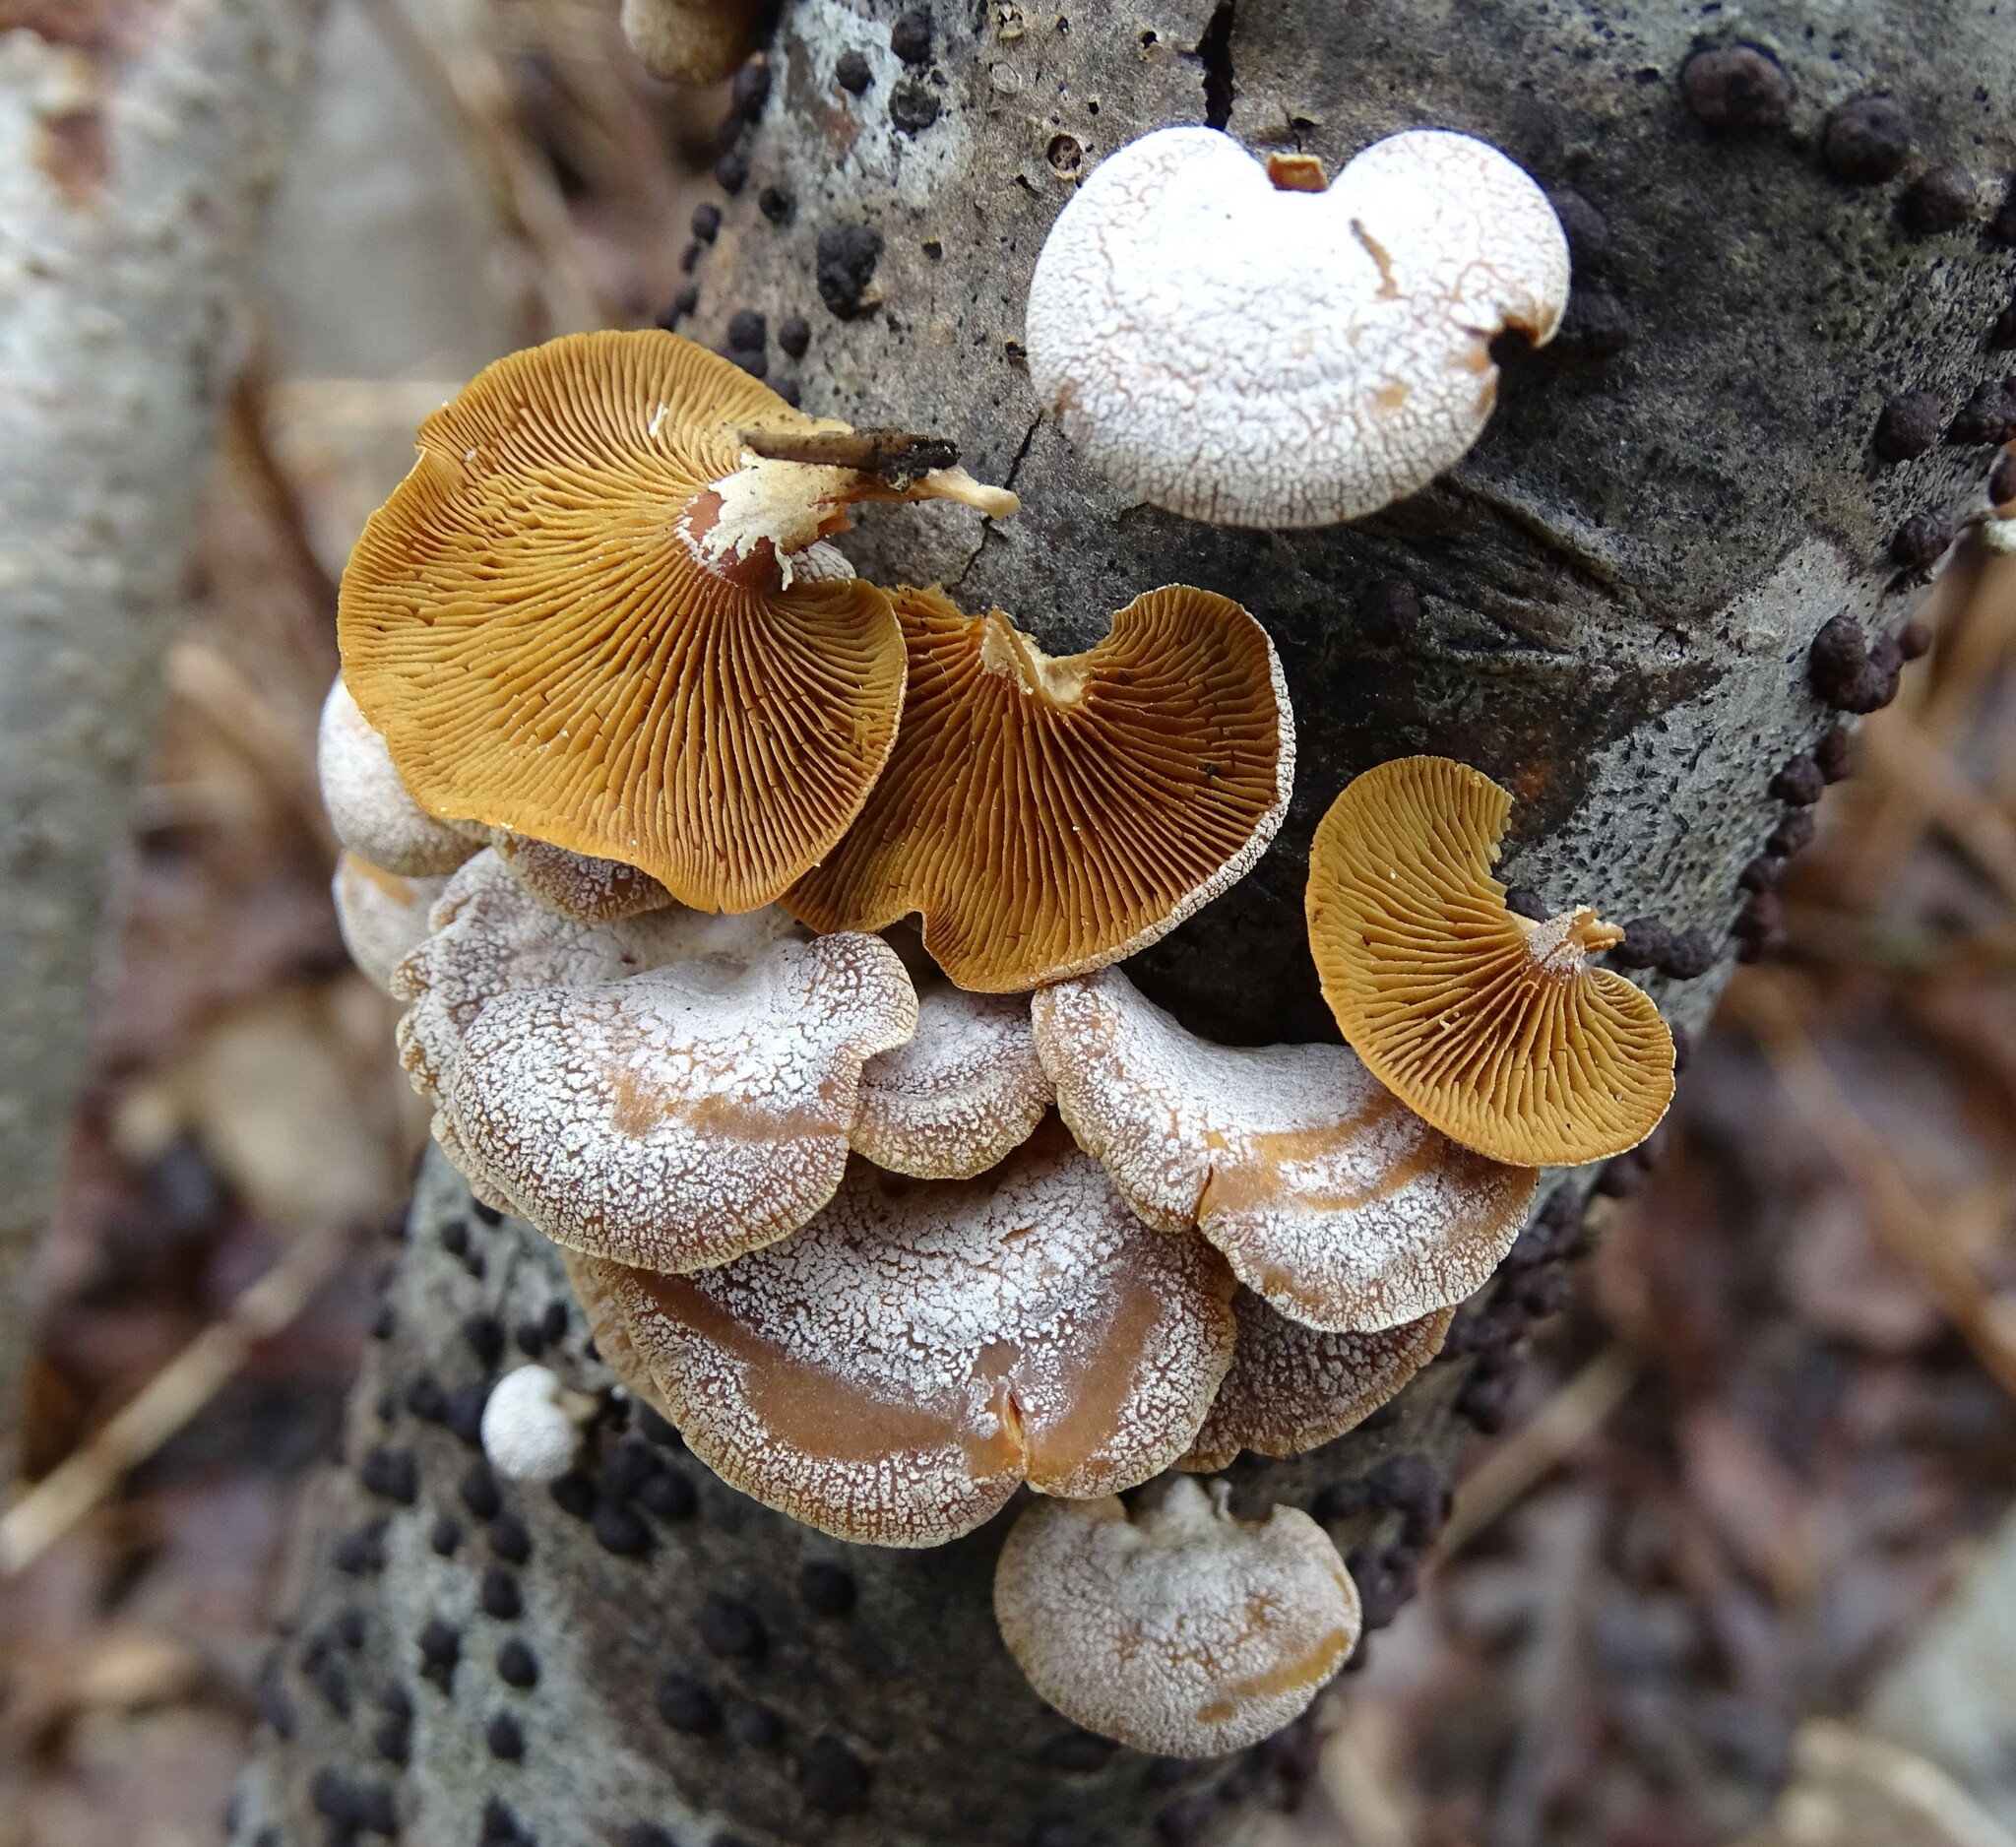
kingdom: Fungi
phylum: Basidiomycota
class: Agaricomycetes
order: Agaricales
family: Mycenaceae
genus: Panellus
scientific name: Panellus stipticus
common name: Bitter oysterling
